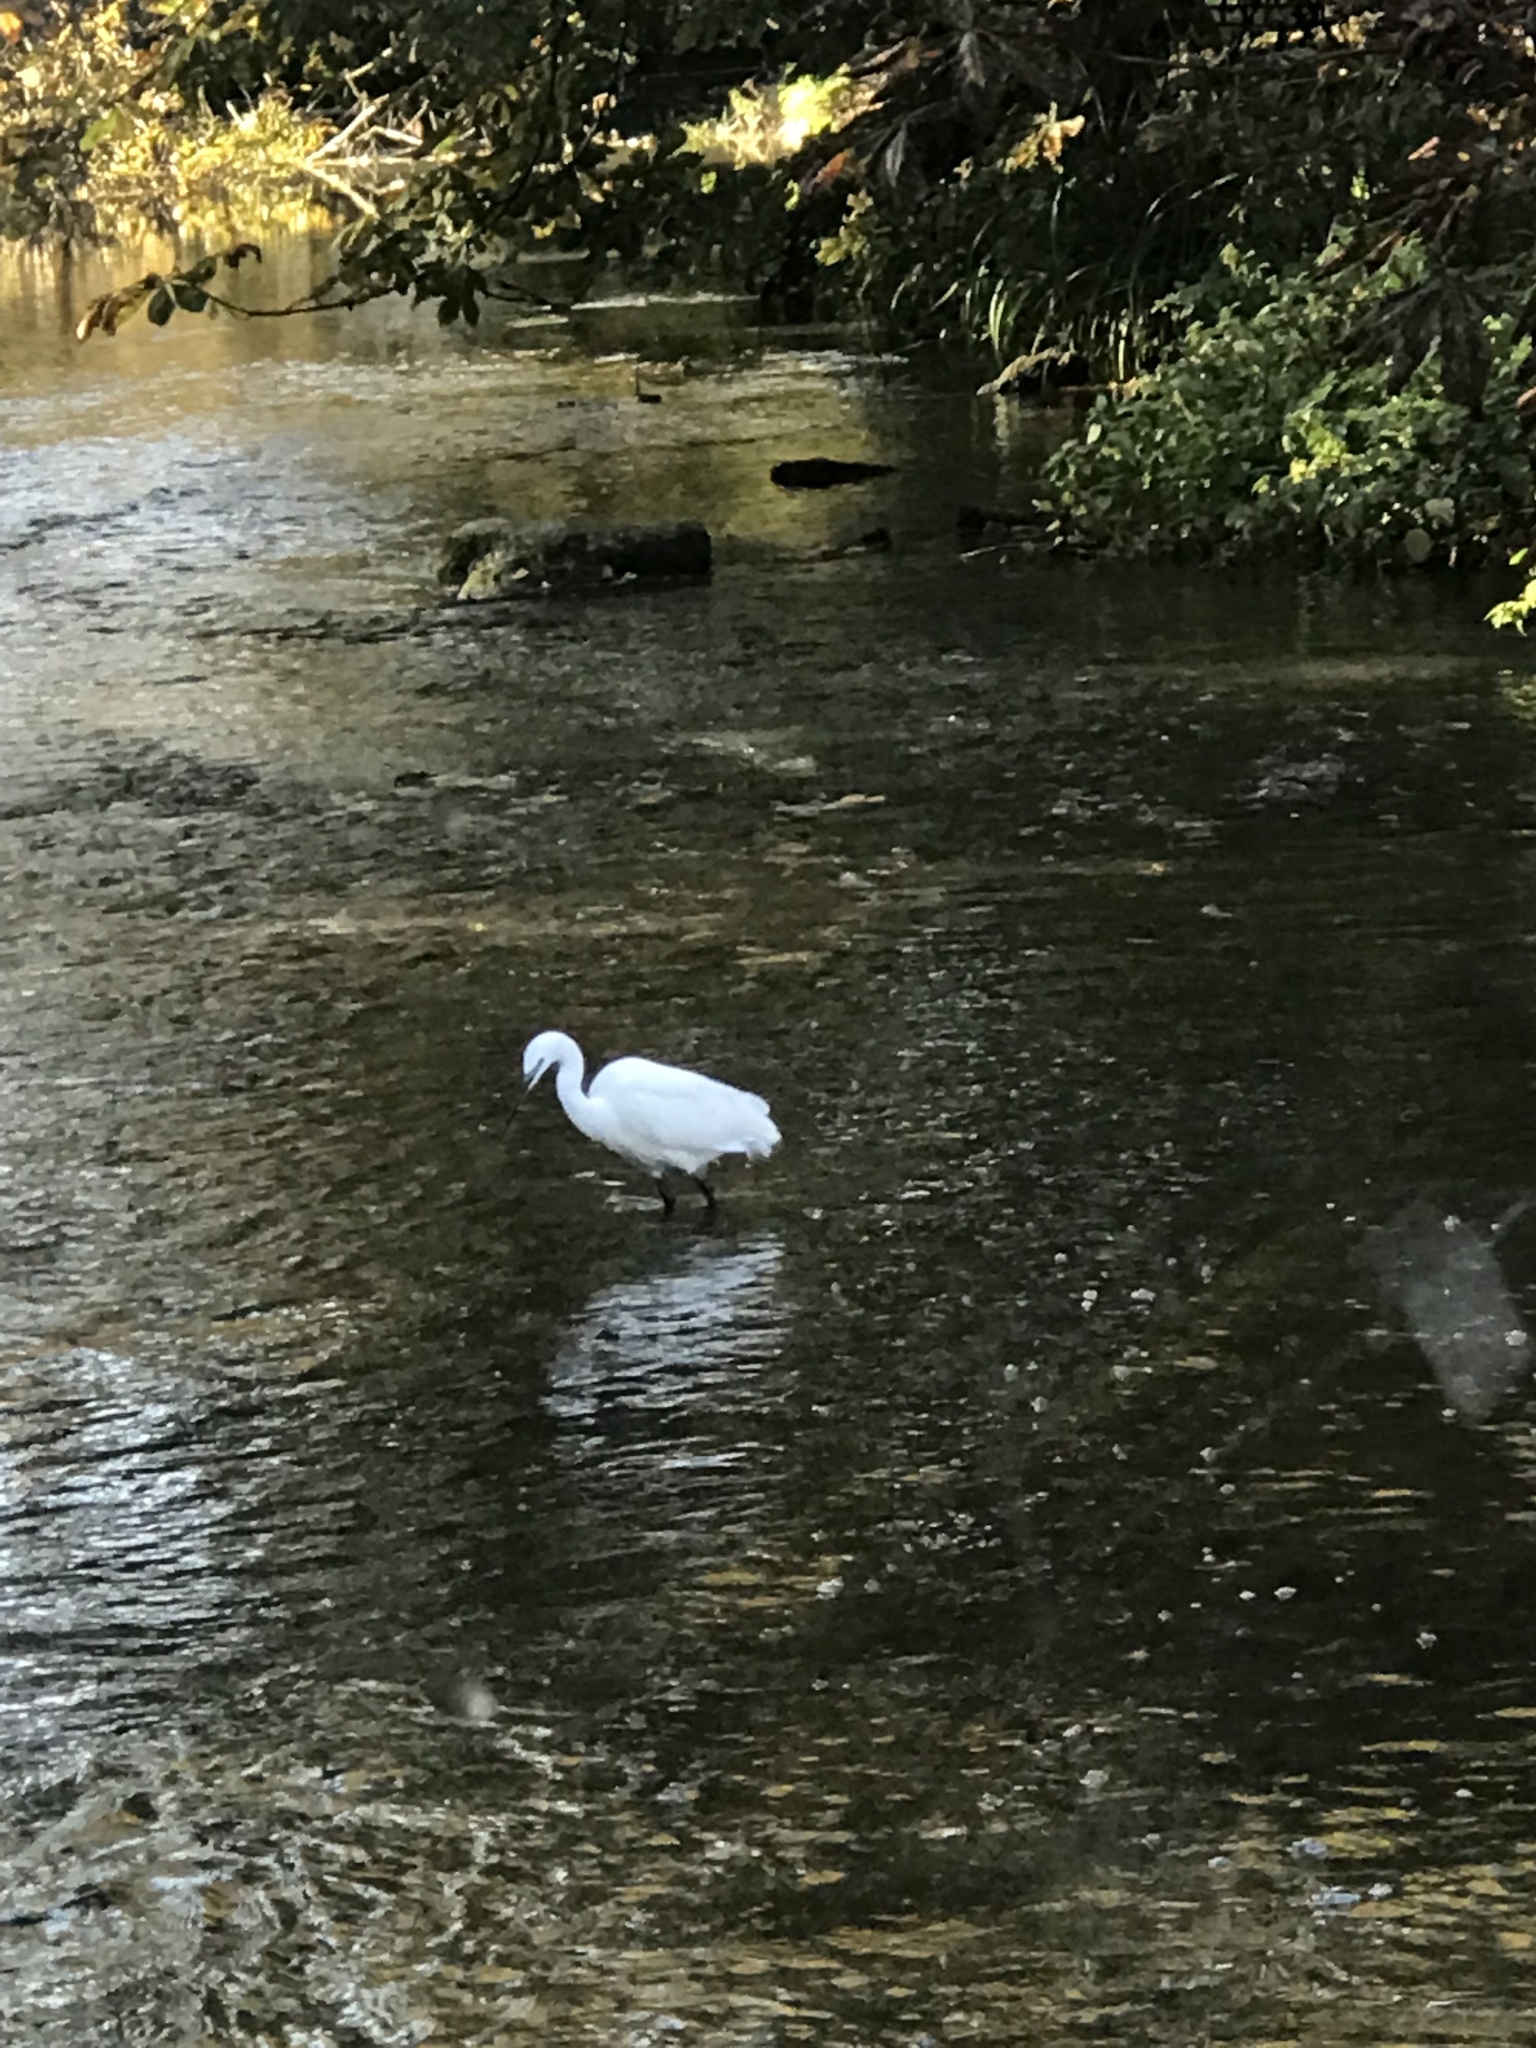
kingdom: Animalia
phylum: Chordata
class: Aves
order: Pelecaniformes
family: Ardeidae
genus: Egretta
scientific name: Egretta garzetta
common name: Little egret
